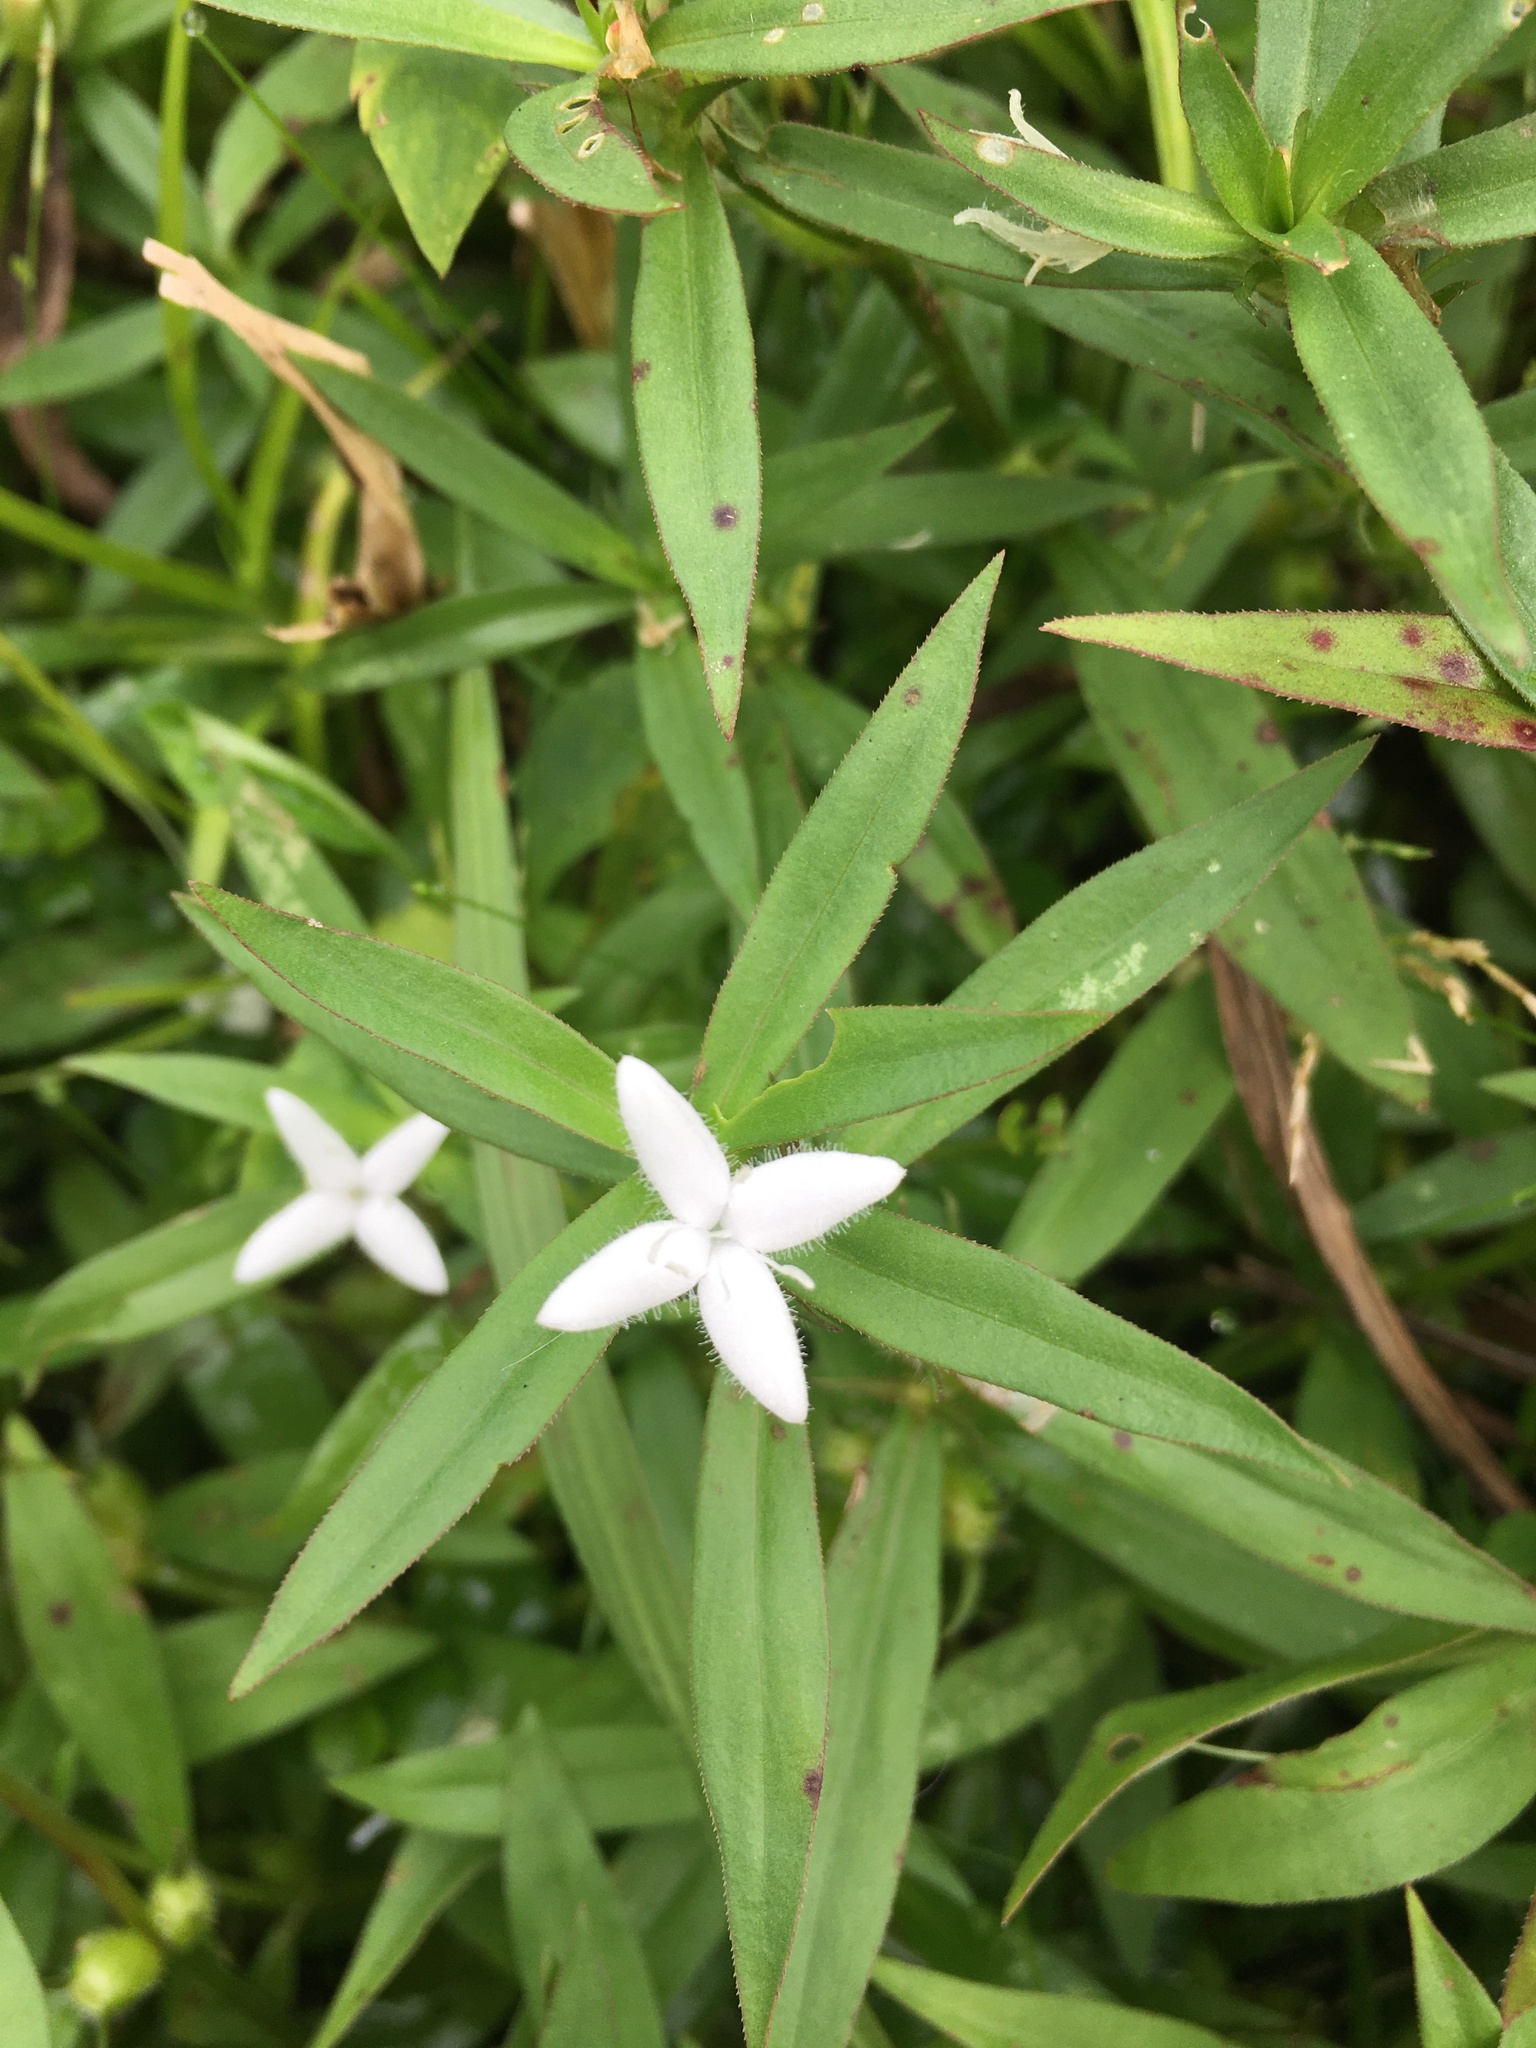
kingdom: Plantae
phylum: Tracheophyta
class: Magnoliopsida
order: Gentianales
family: Rubiaceae
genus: Diodia
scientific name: Diodia virginiana
